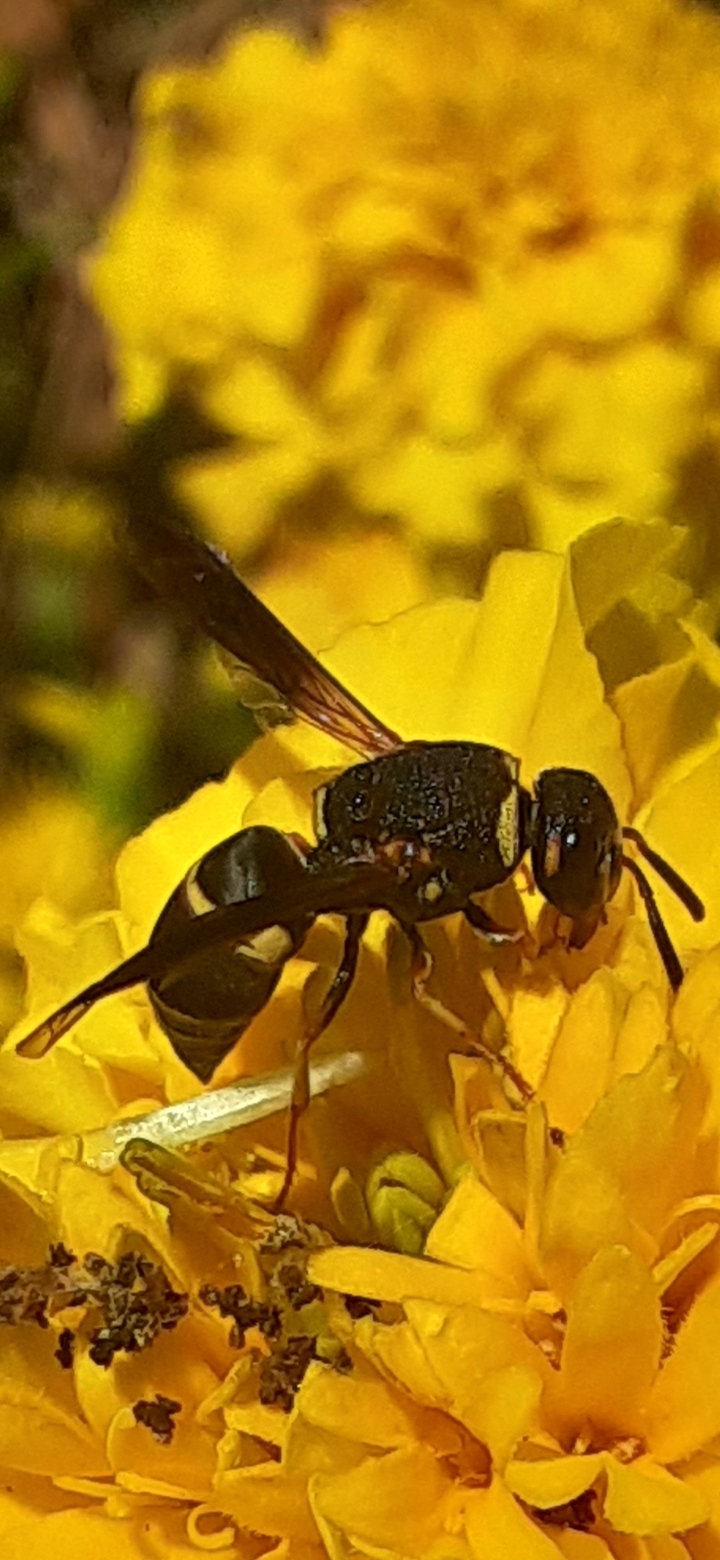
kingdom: Animalia
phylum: Arthropoda
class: Insecta
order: Hymenoptera
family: Eumenidae
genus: Euodynerus
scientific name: Euodynerus hidalgo
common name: Wasp
